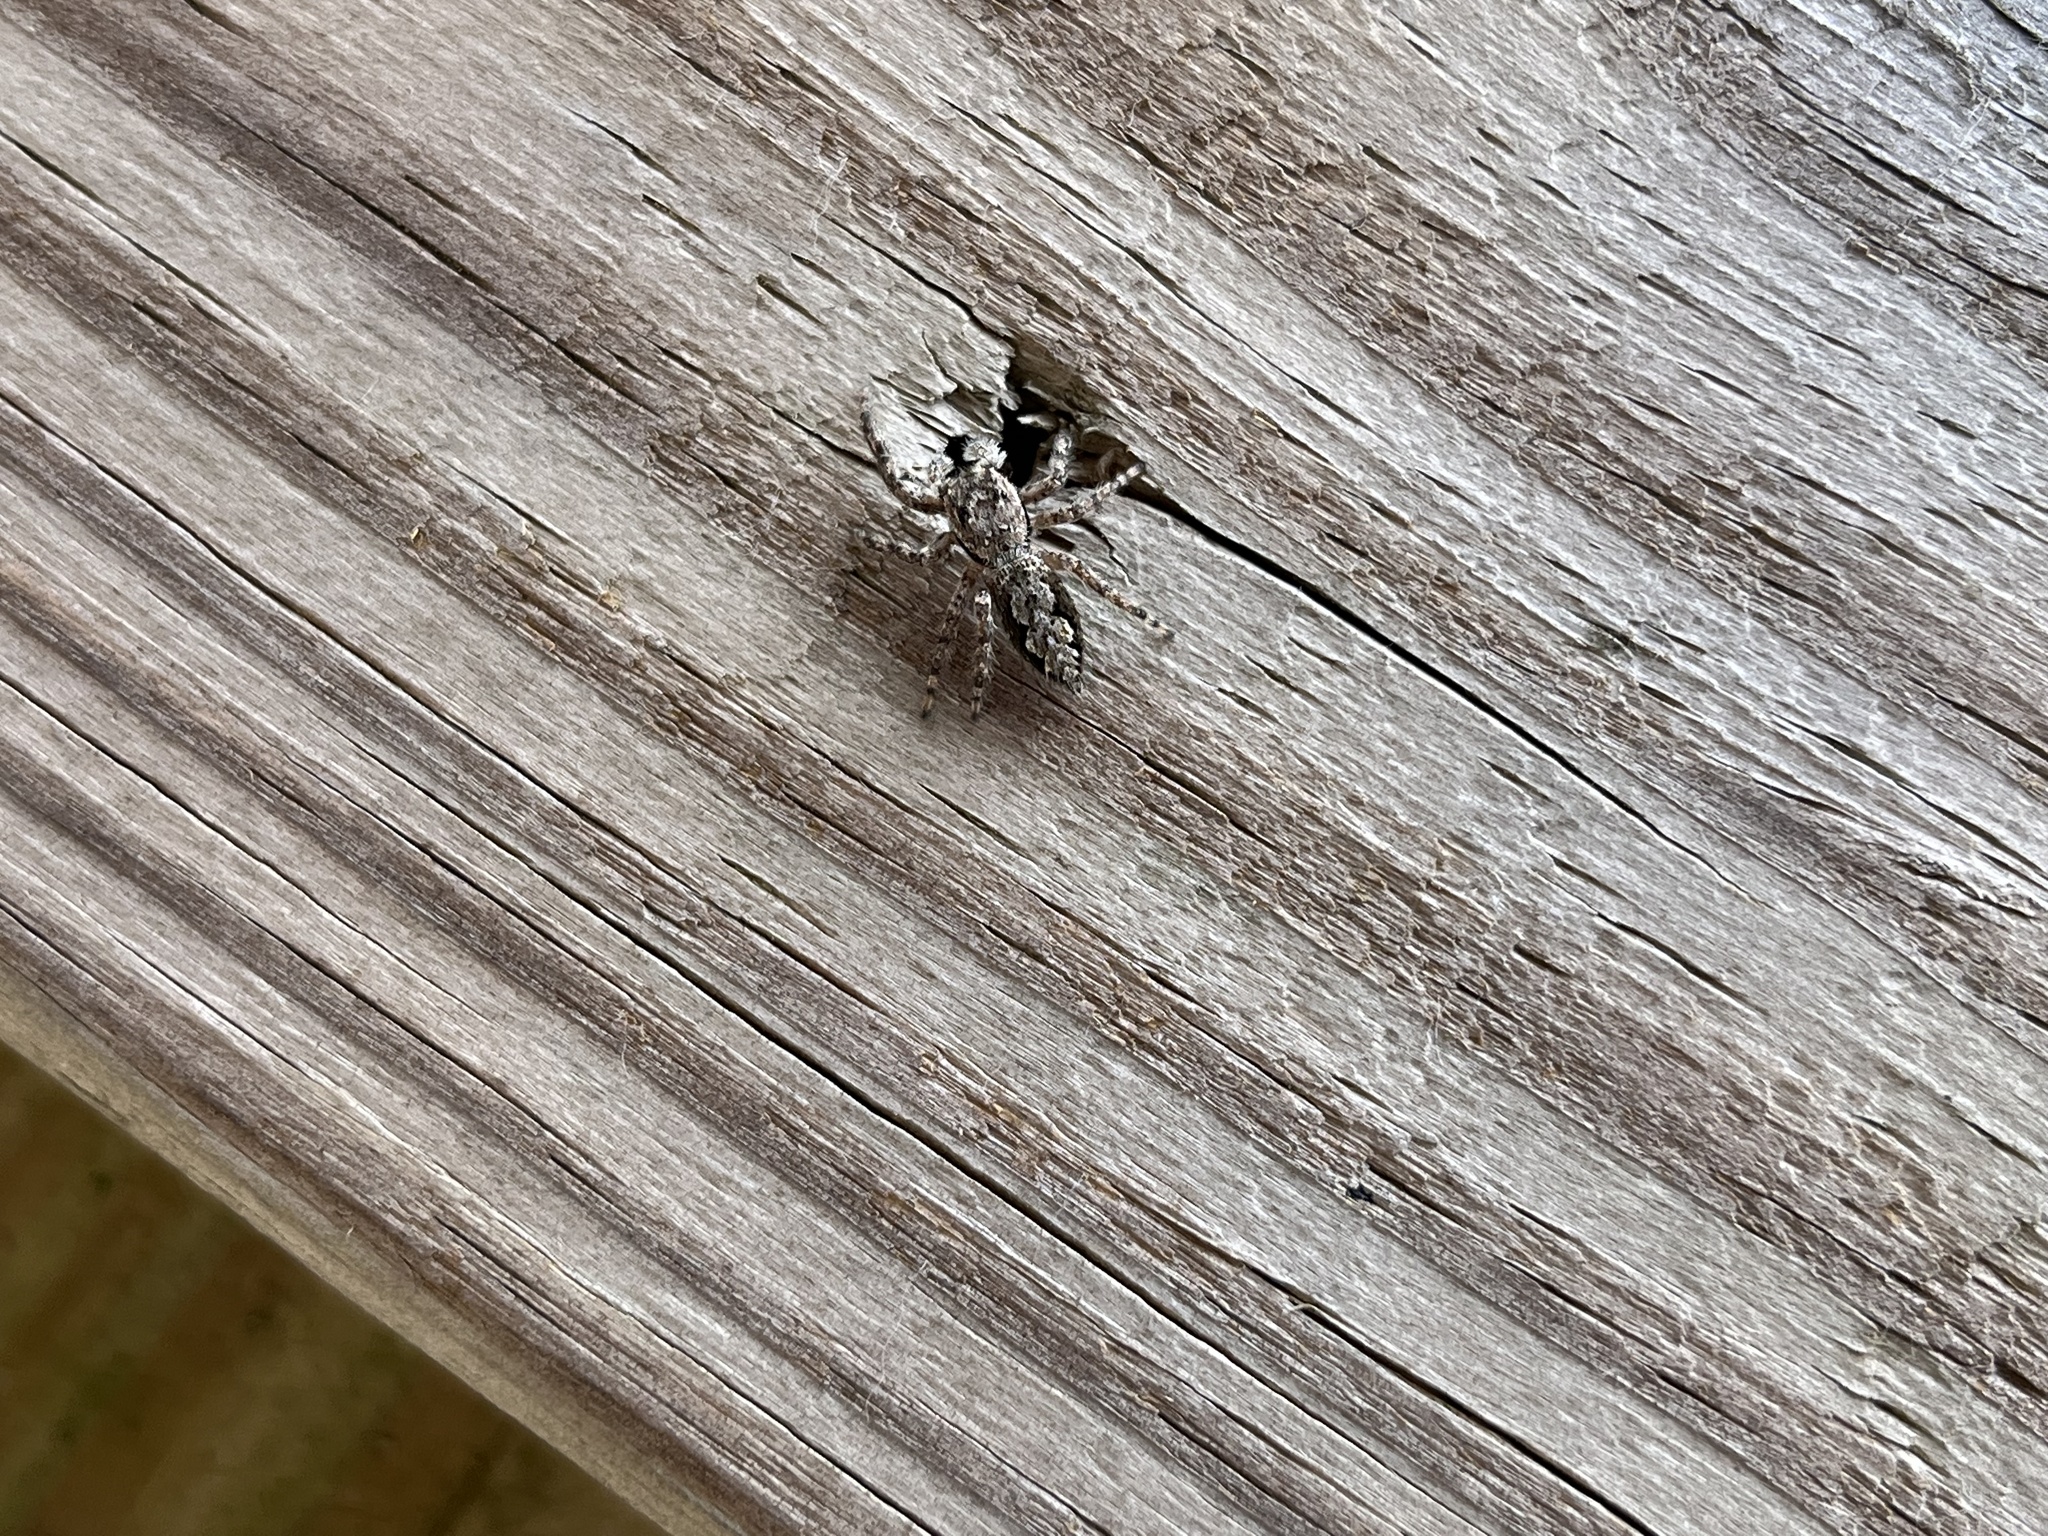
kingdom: Animalia
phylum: Arthropoda
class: Arachnida
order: Araneae
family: Salticidae
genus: Platycryptus
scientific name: Platycryptus undatus
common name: Tan jumping spider
